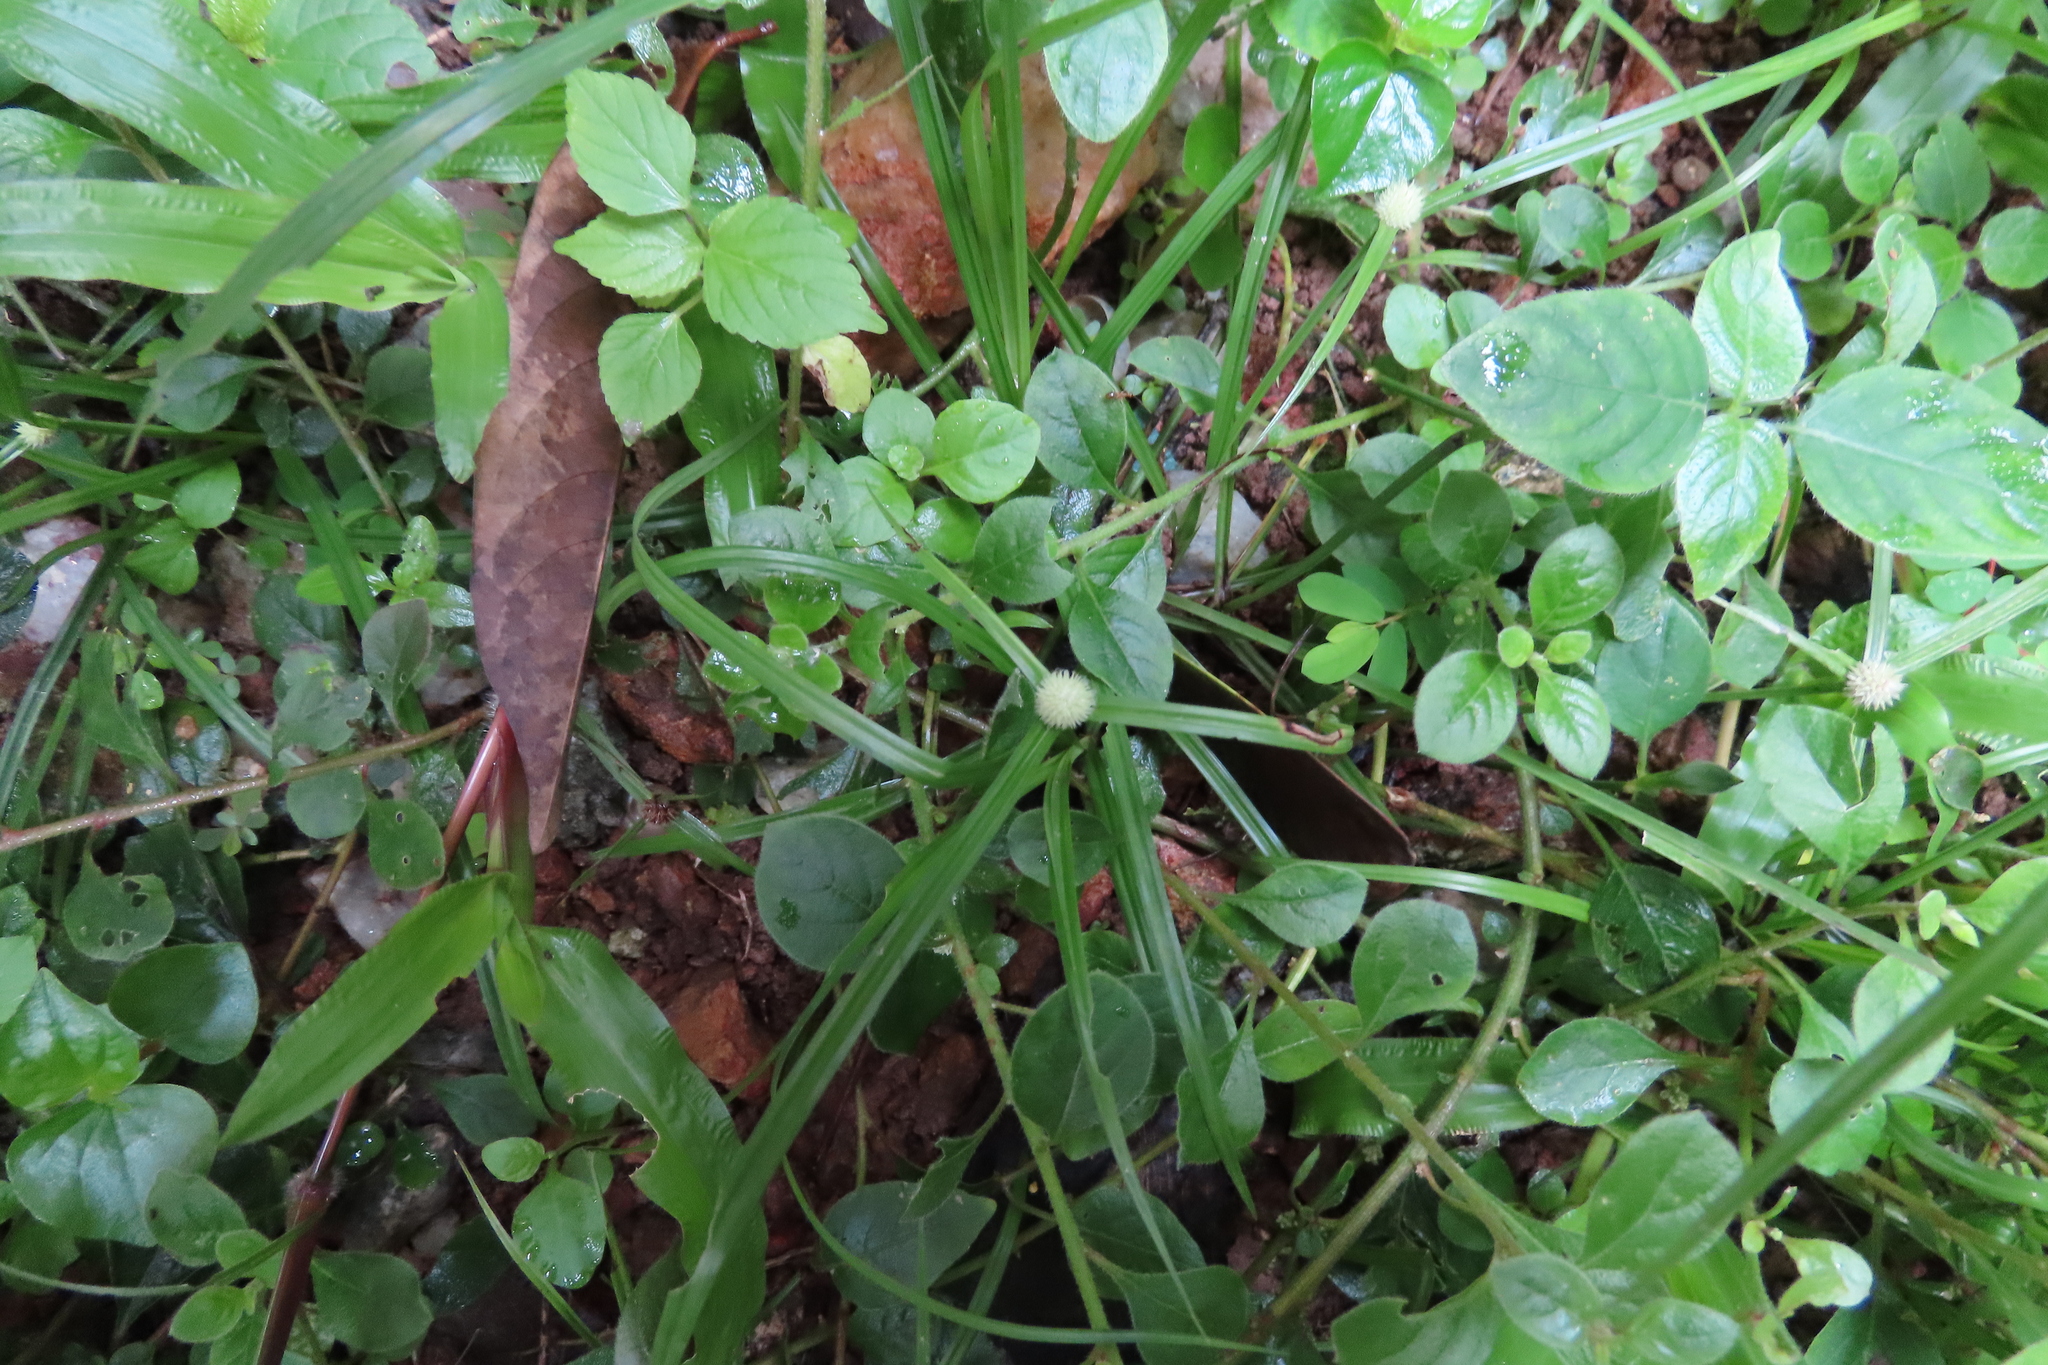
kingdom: Plantae
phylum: Tracheophyta
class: Liliopsida
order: Poales
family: Cyperaceae
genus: Cyperus
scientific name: Cyperus mindorensis
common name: Flatsedge
